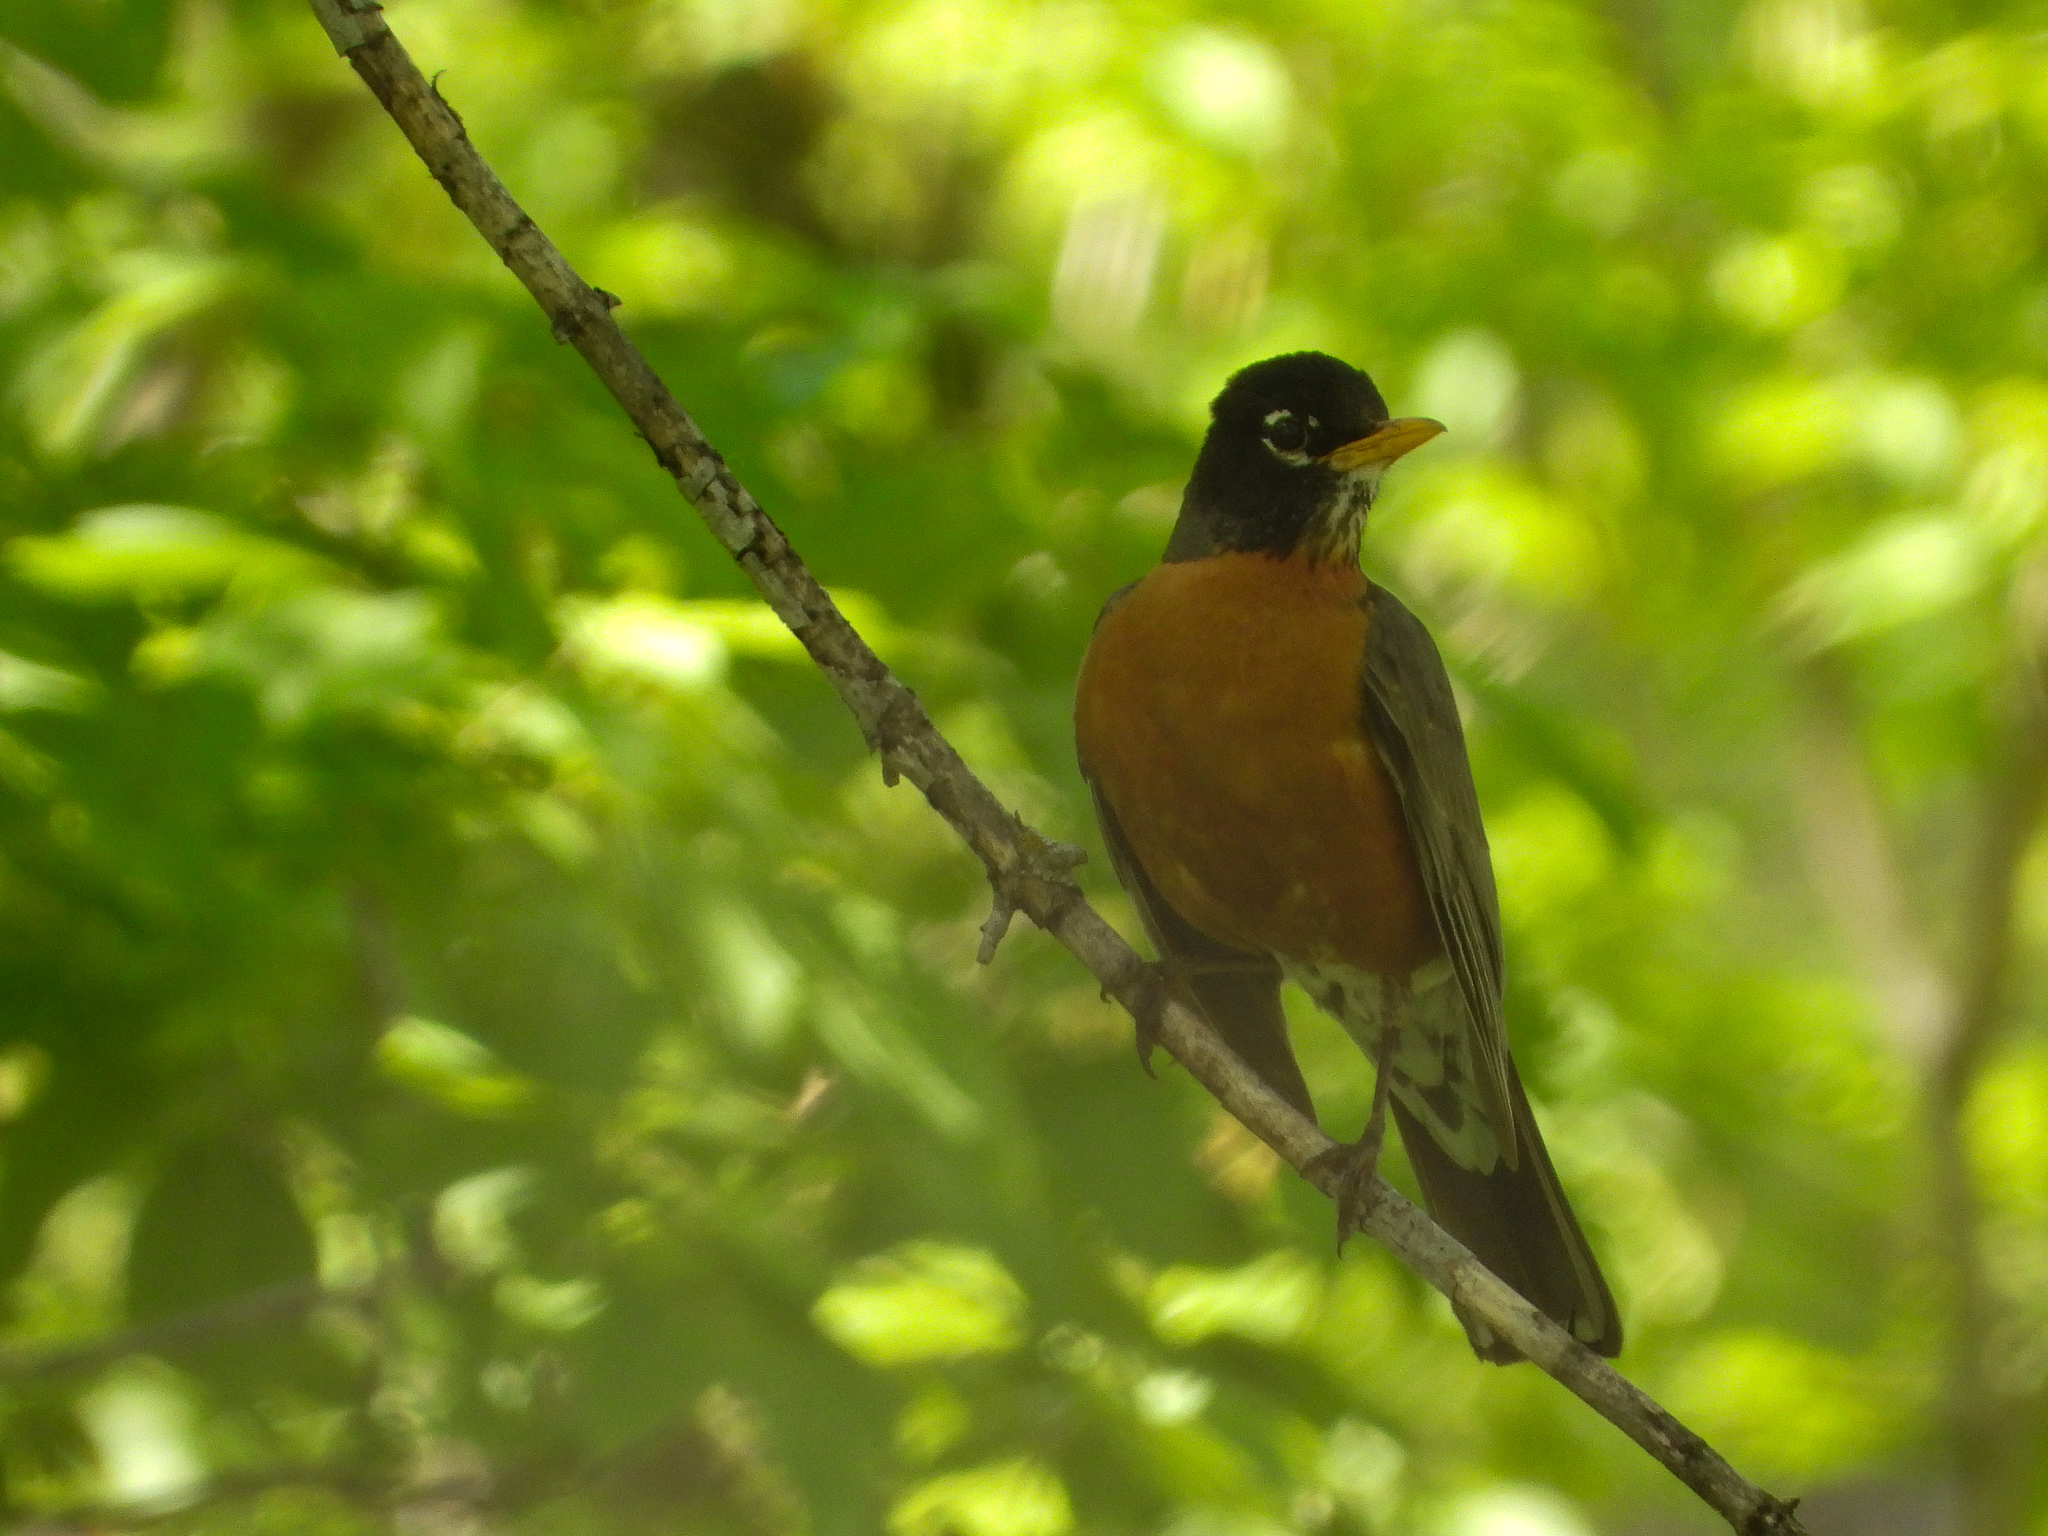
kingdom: Animalia
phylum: Chordata
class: Aves
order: Passeriformes
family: Turdidae
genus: Turdus
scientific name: Turdus migratorius
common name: American robin
